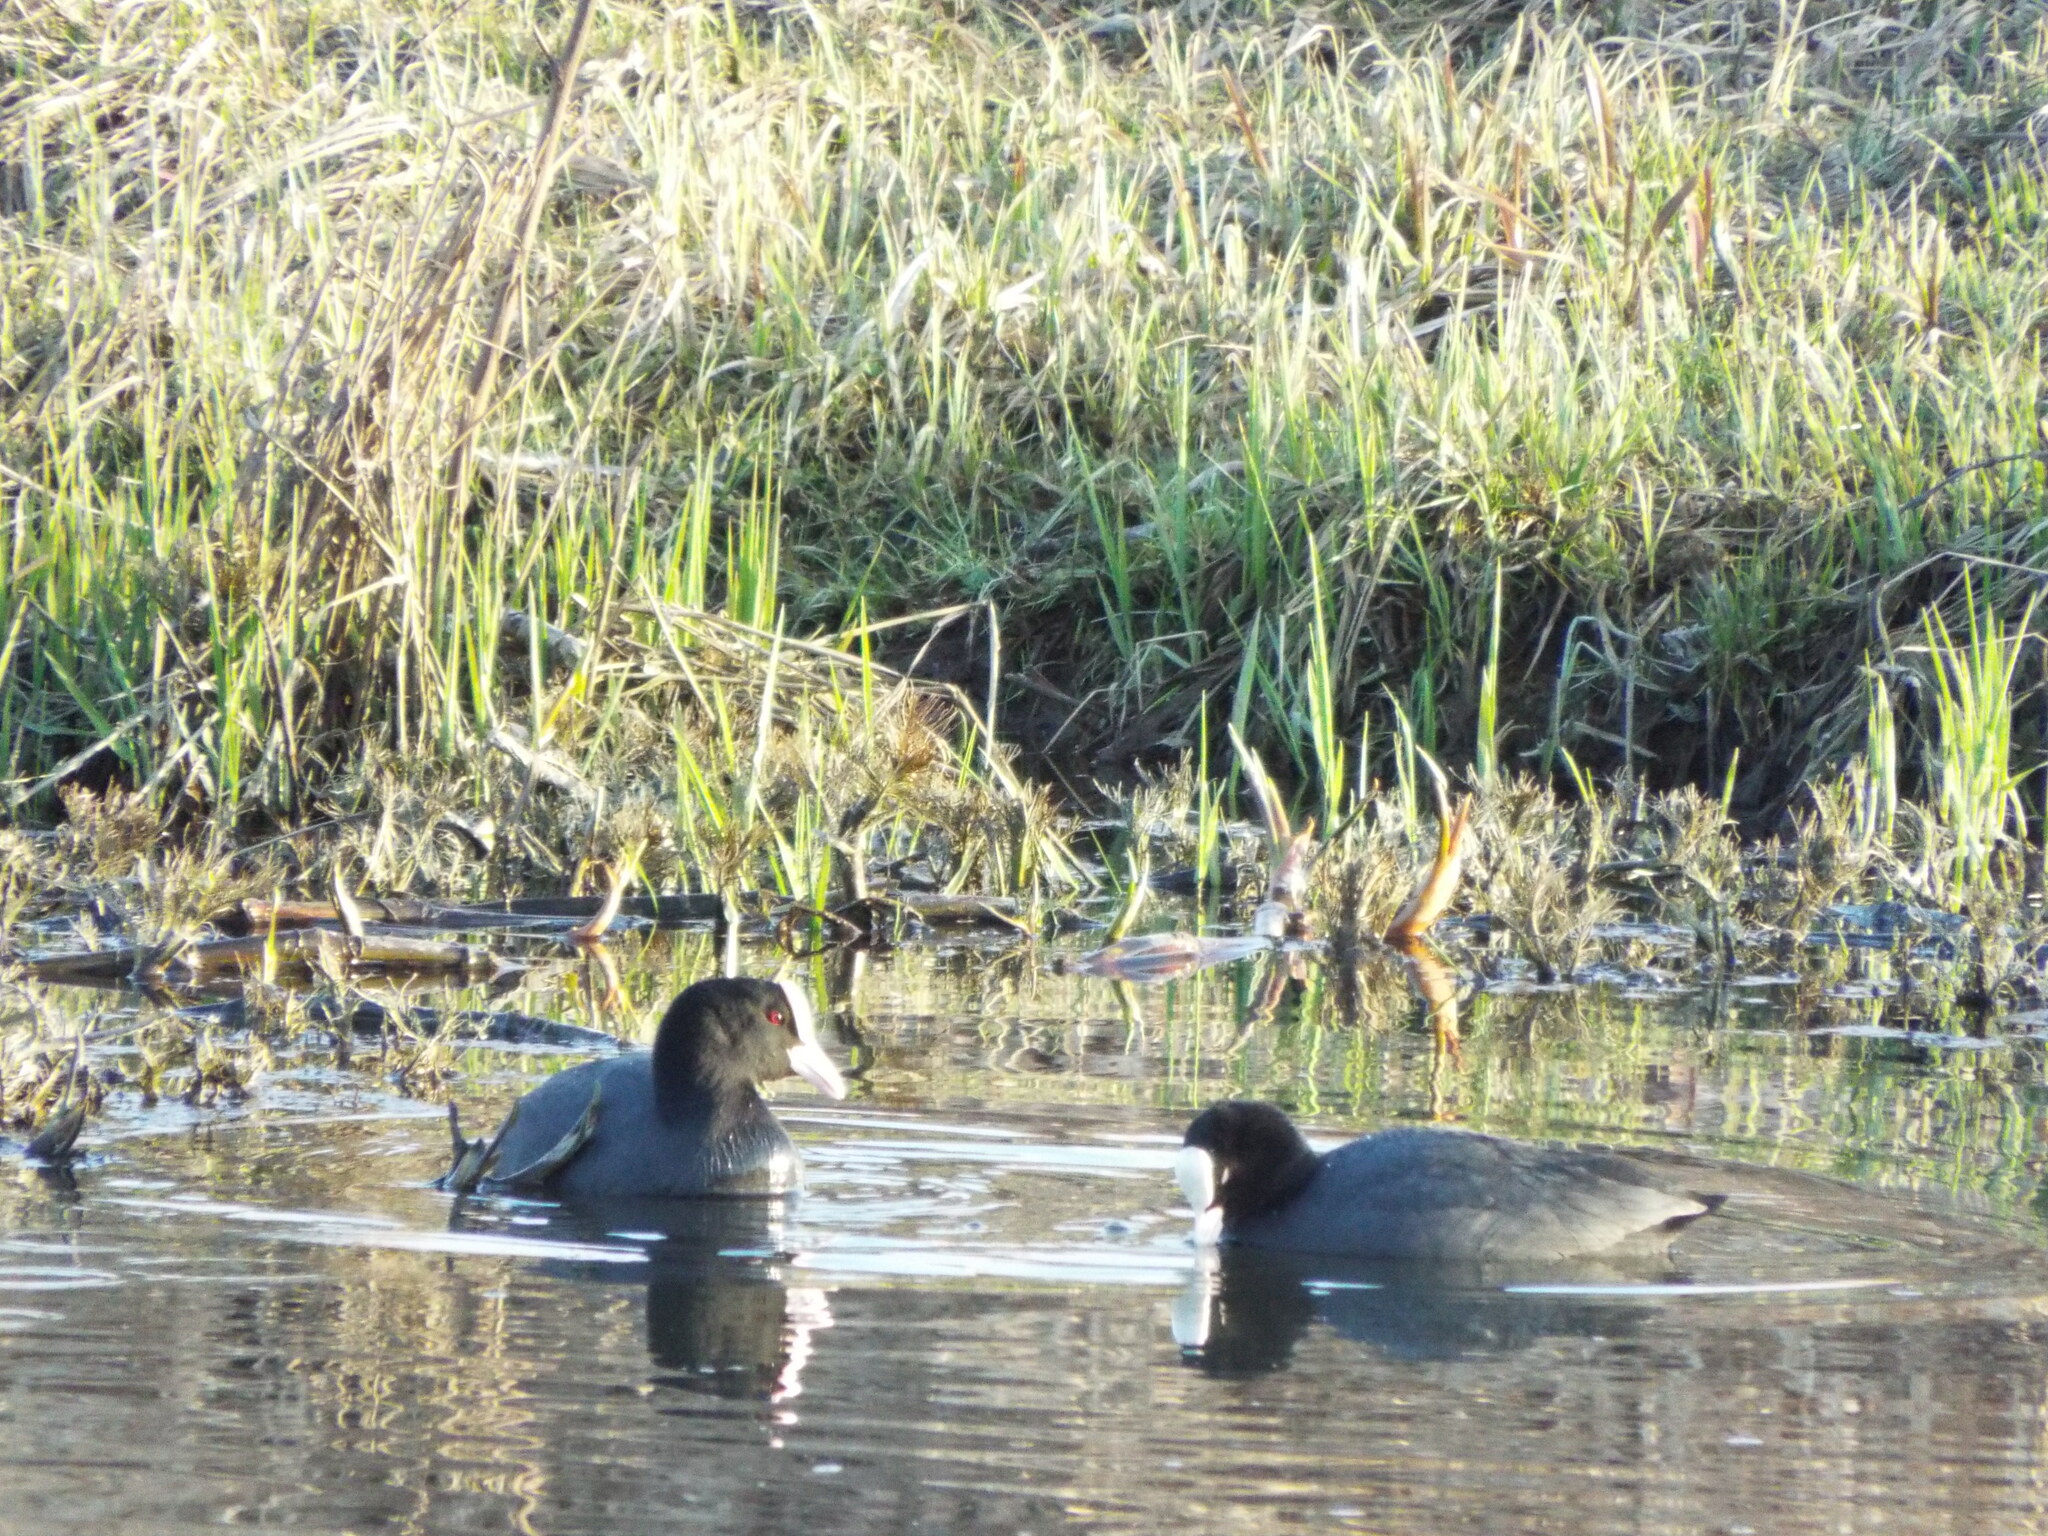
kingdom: Animalia
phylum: Chordata
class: Aves
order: Gruiformes
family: Rallidae
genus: Fulica
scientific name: Fulica atra
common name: Eurasian coot
